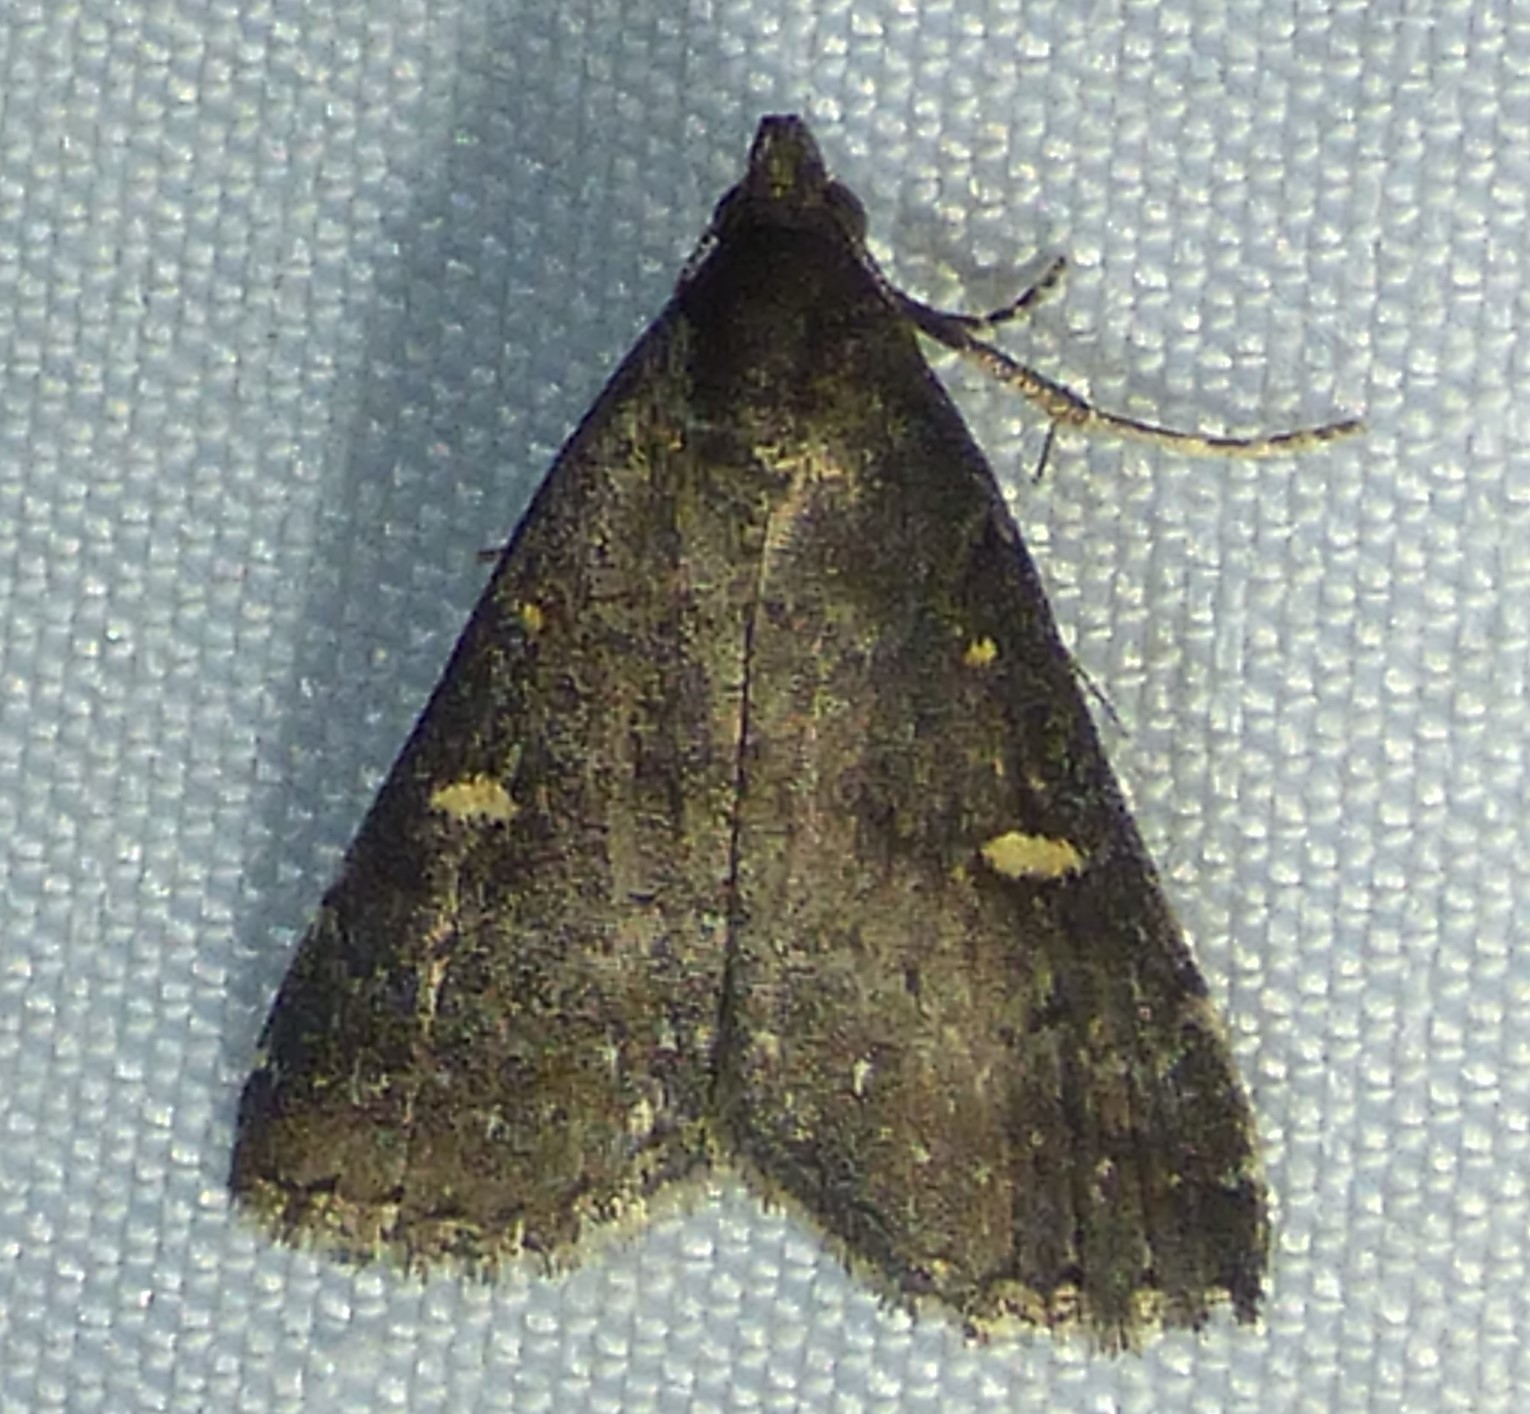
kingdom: Animalia
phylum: Arthropoda
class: Insecta
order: Lepidoptera
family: Erebidae
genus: Tetanolita
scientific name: Tetanolita mynesalis
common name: Smoky tetanolita moth
